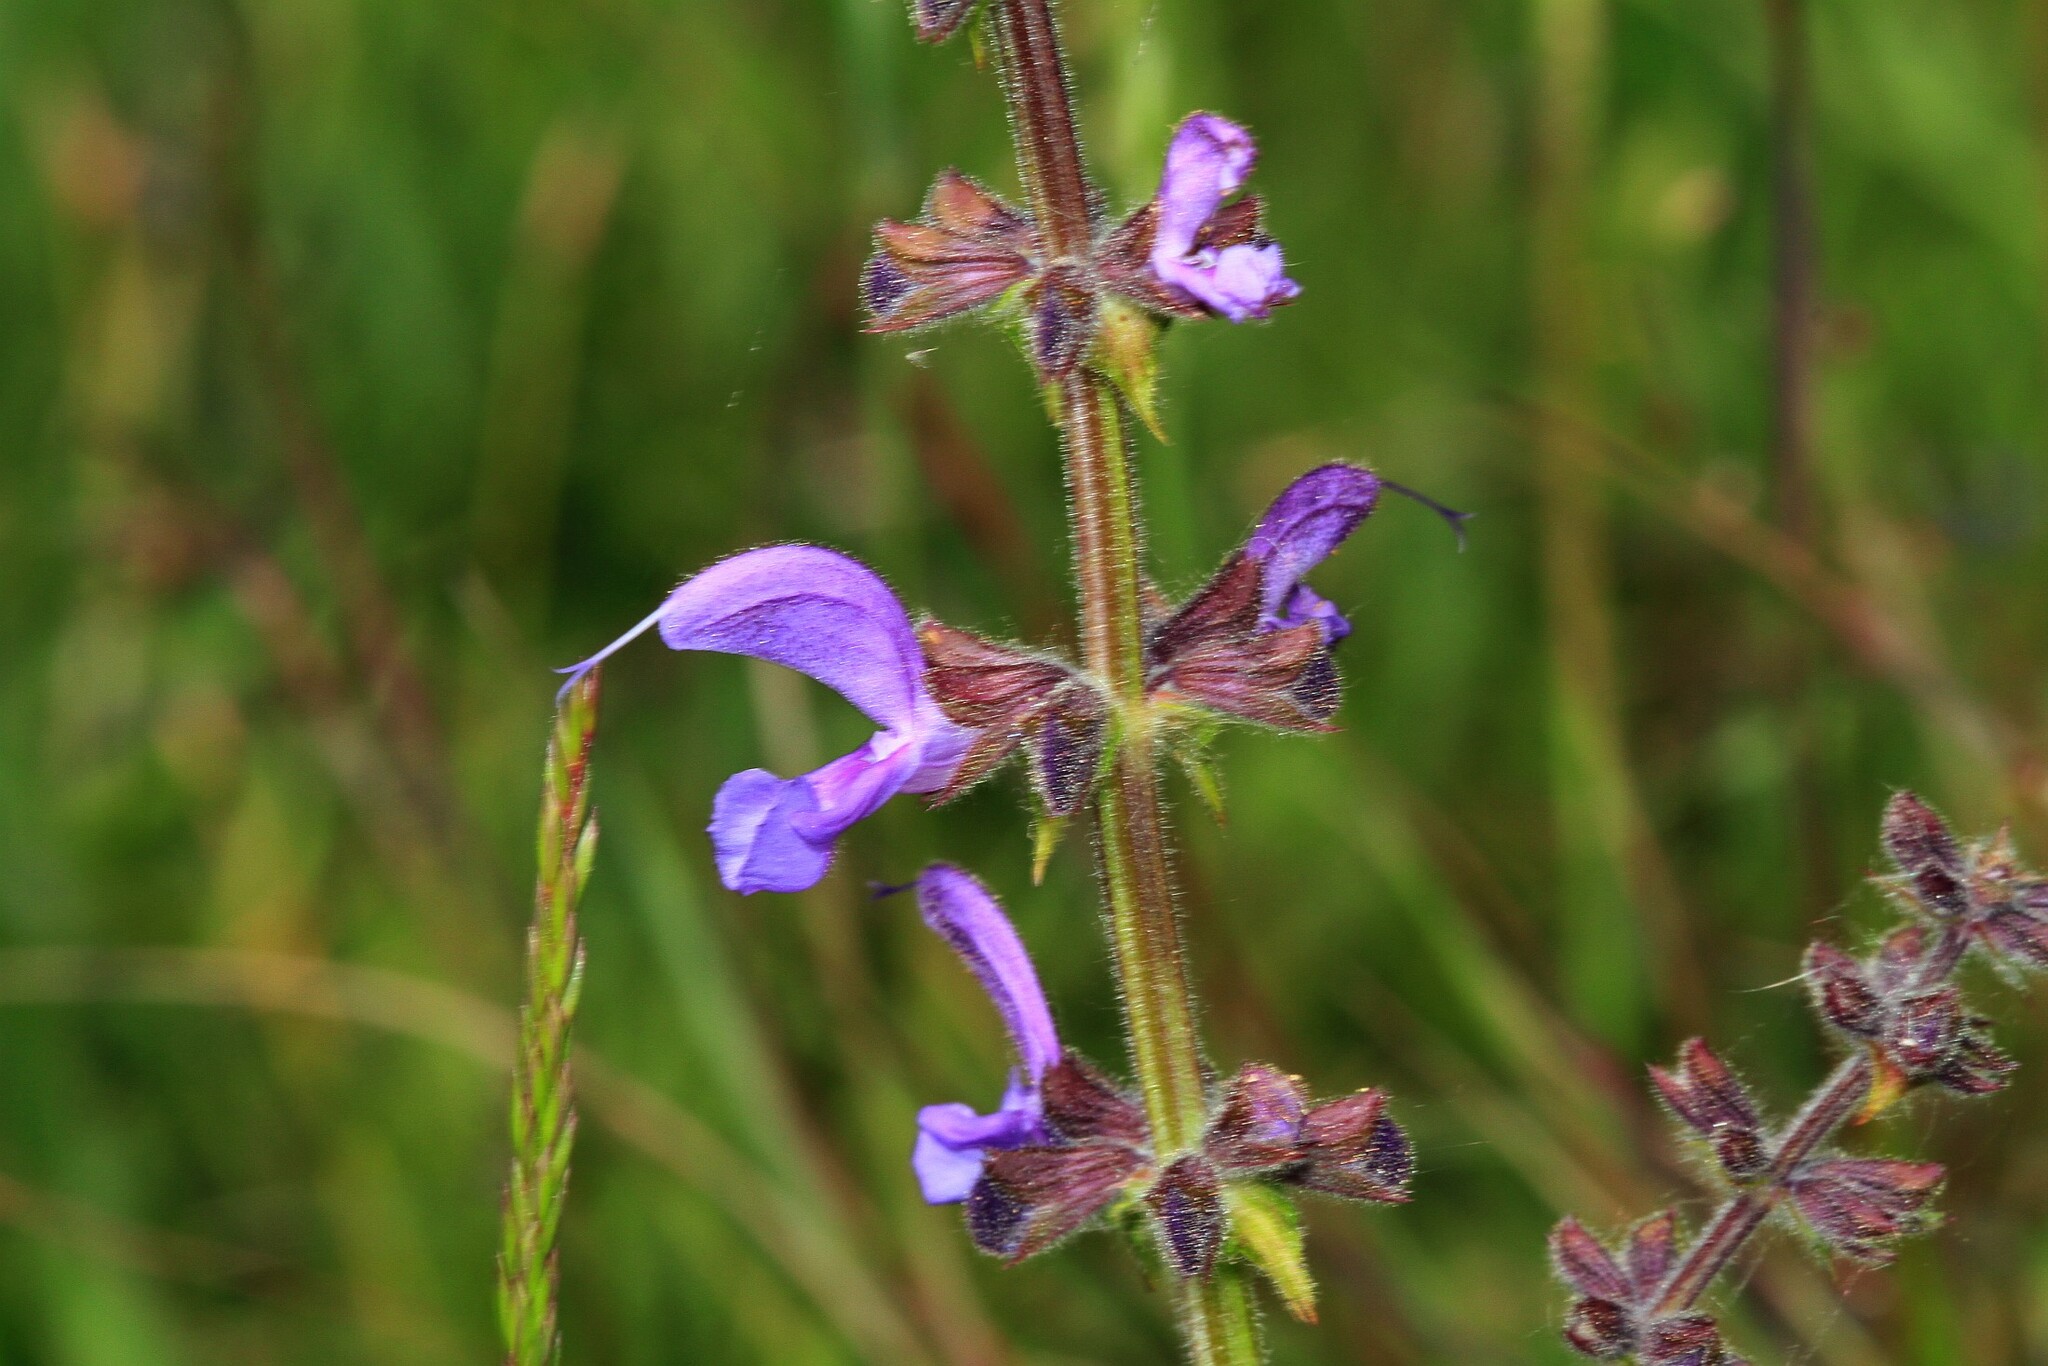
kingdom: Plantae
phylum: Tracheophyta
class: Magnoliopsida
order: Lamiales
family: Lamiaceae
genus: Salvia
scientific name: Salvia pratensis
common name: Meadow sage
